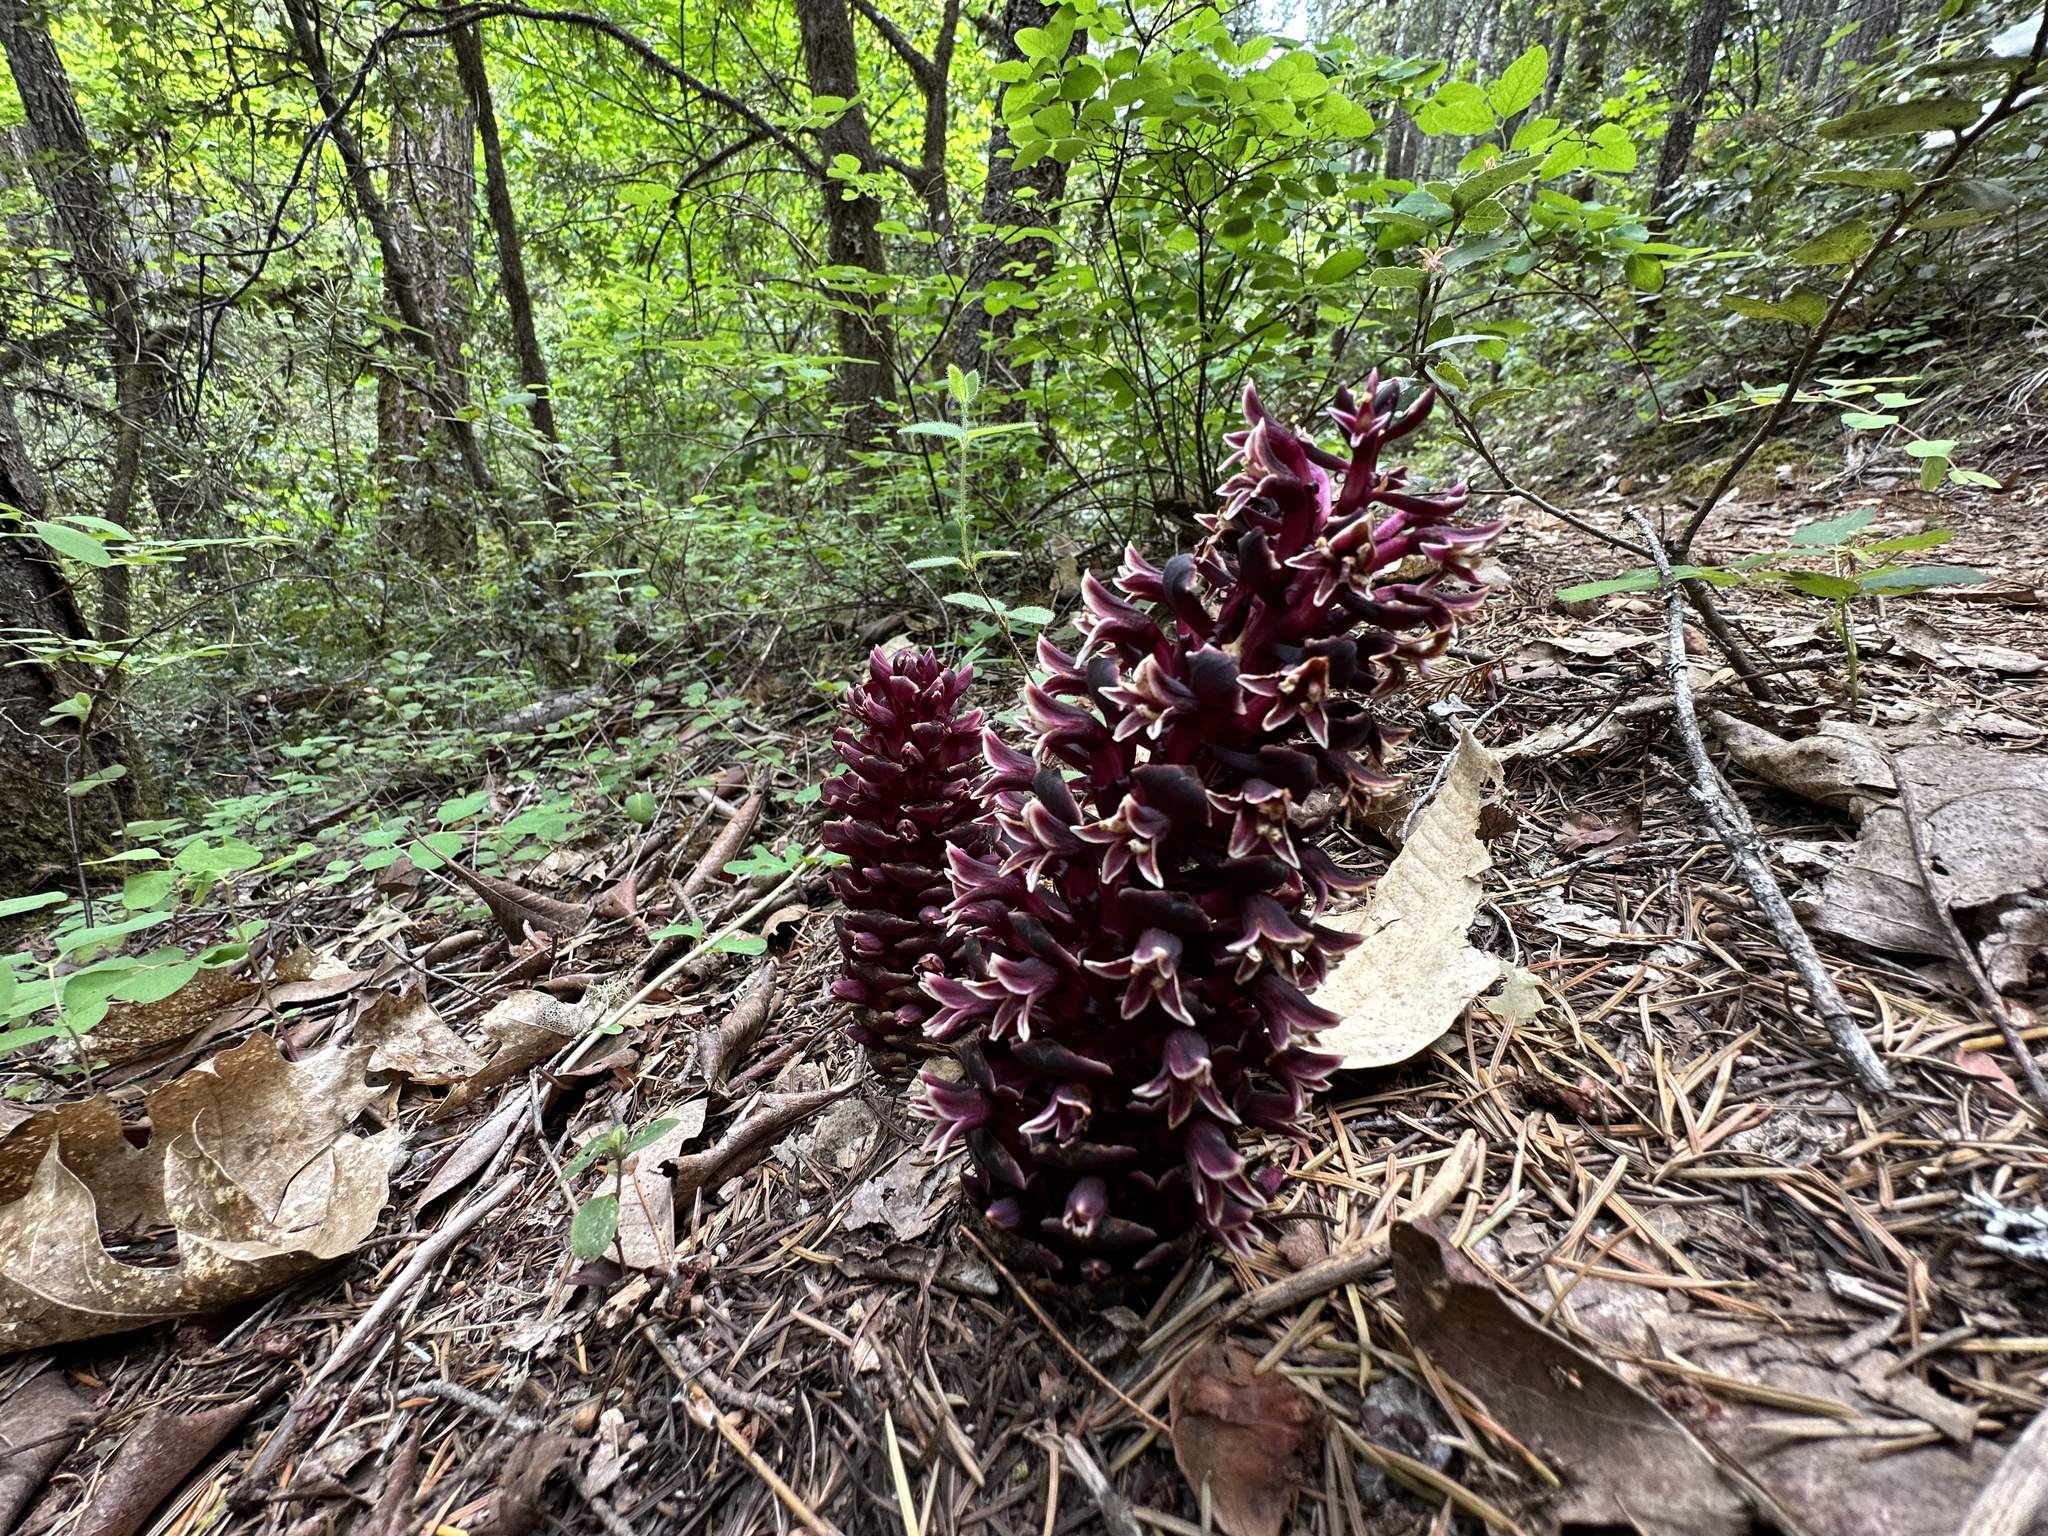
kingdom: Plantae
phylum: Tracheophyta
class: Magnoliopsida
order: Lamiales
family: Orobanchaceae
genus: Kopsiopsis
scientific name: Kopsiopsis strobilacea
